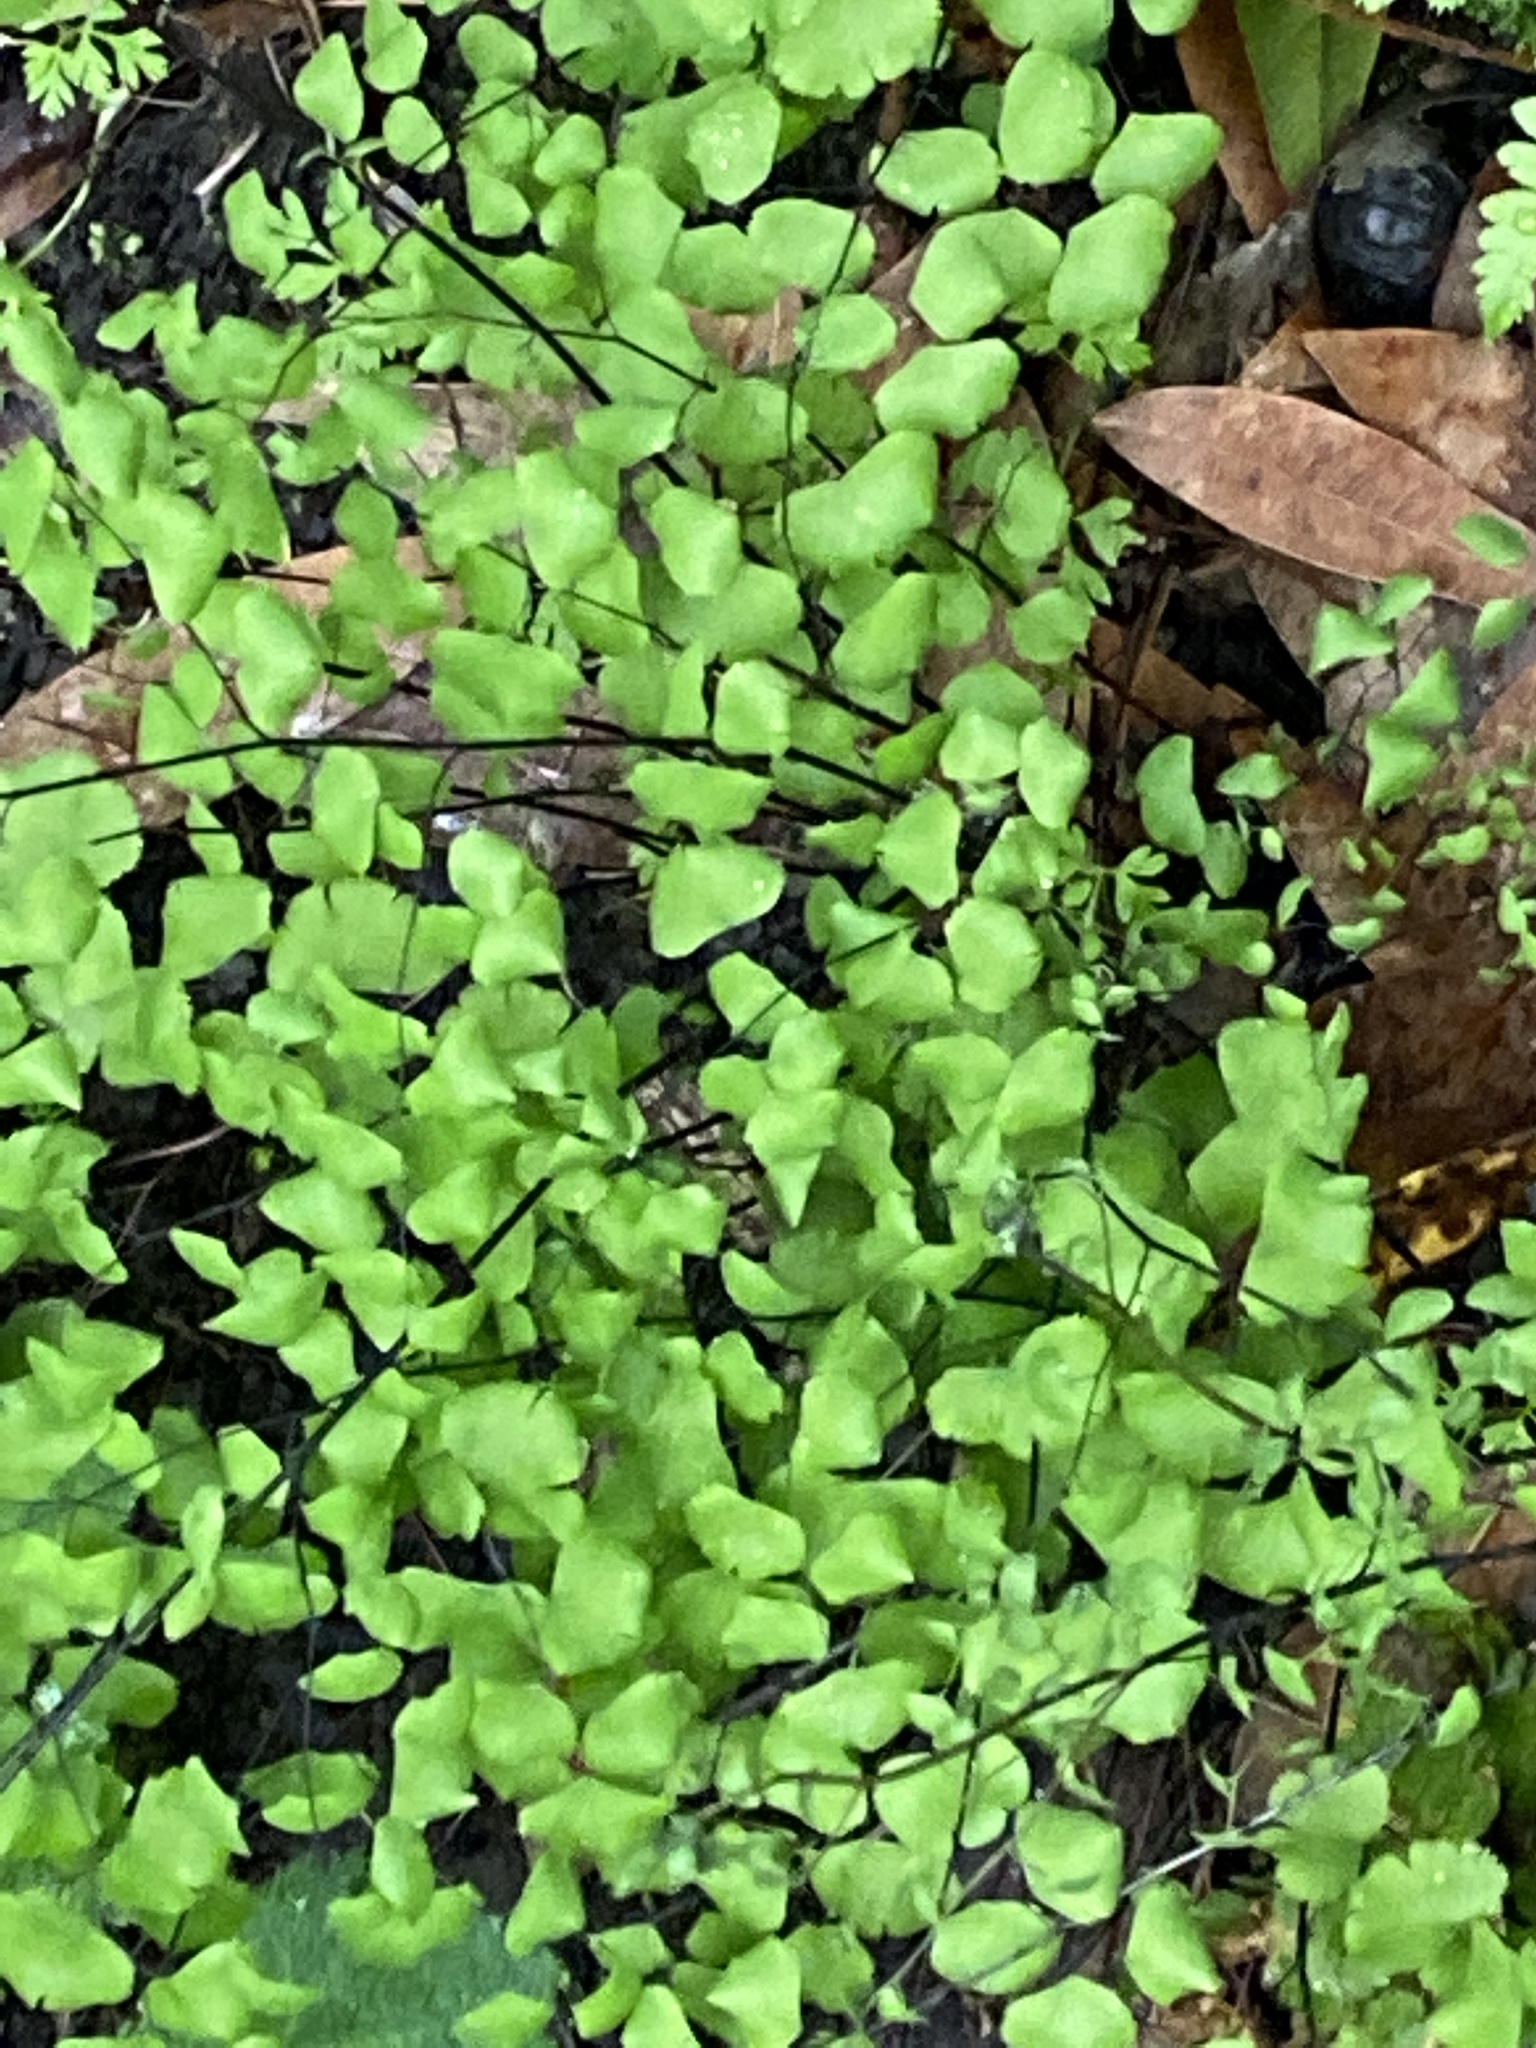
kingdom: Plantae
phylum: Tracheophyta
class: Polypodiopsida
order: Polypodiales
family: Pteridaceae
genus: Adiantum
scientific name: Adiantum jordanii
